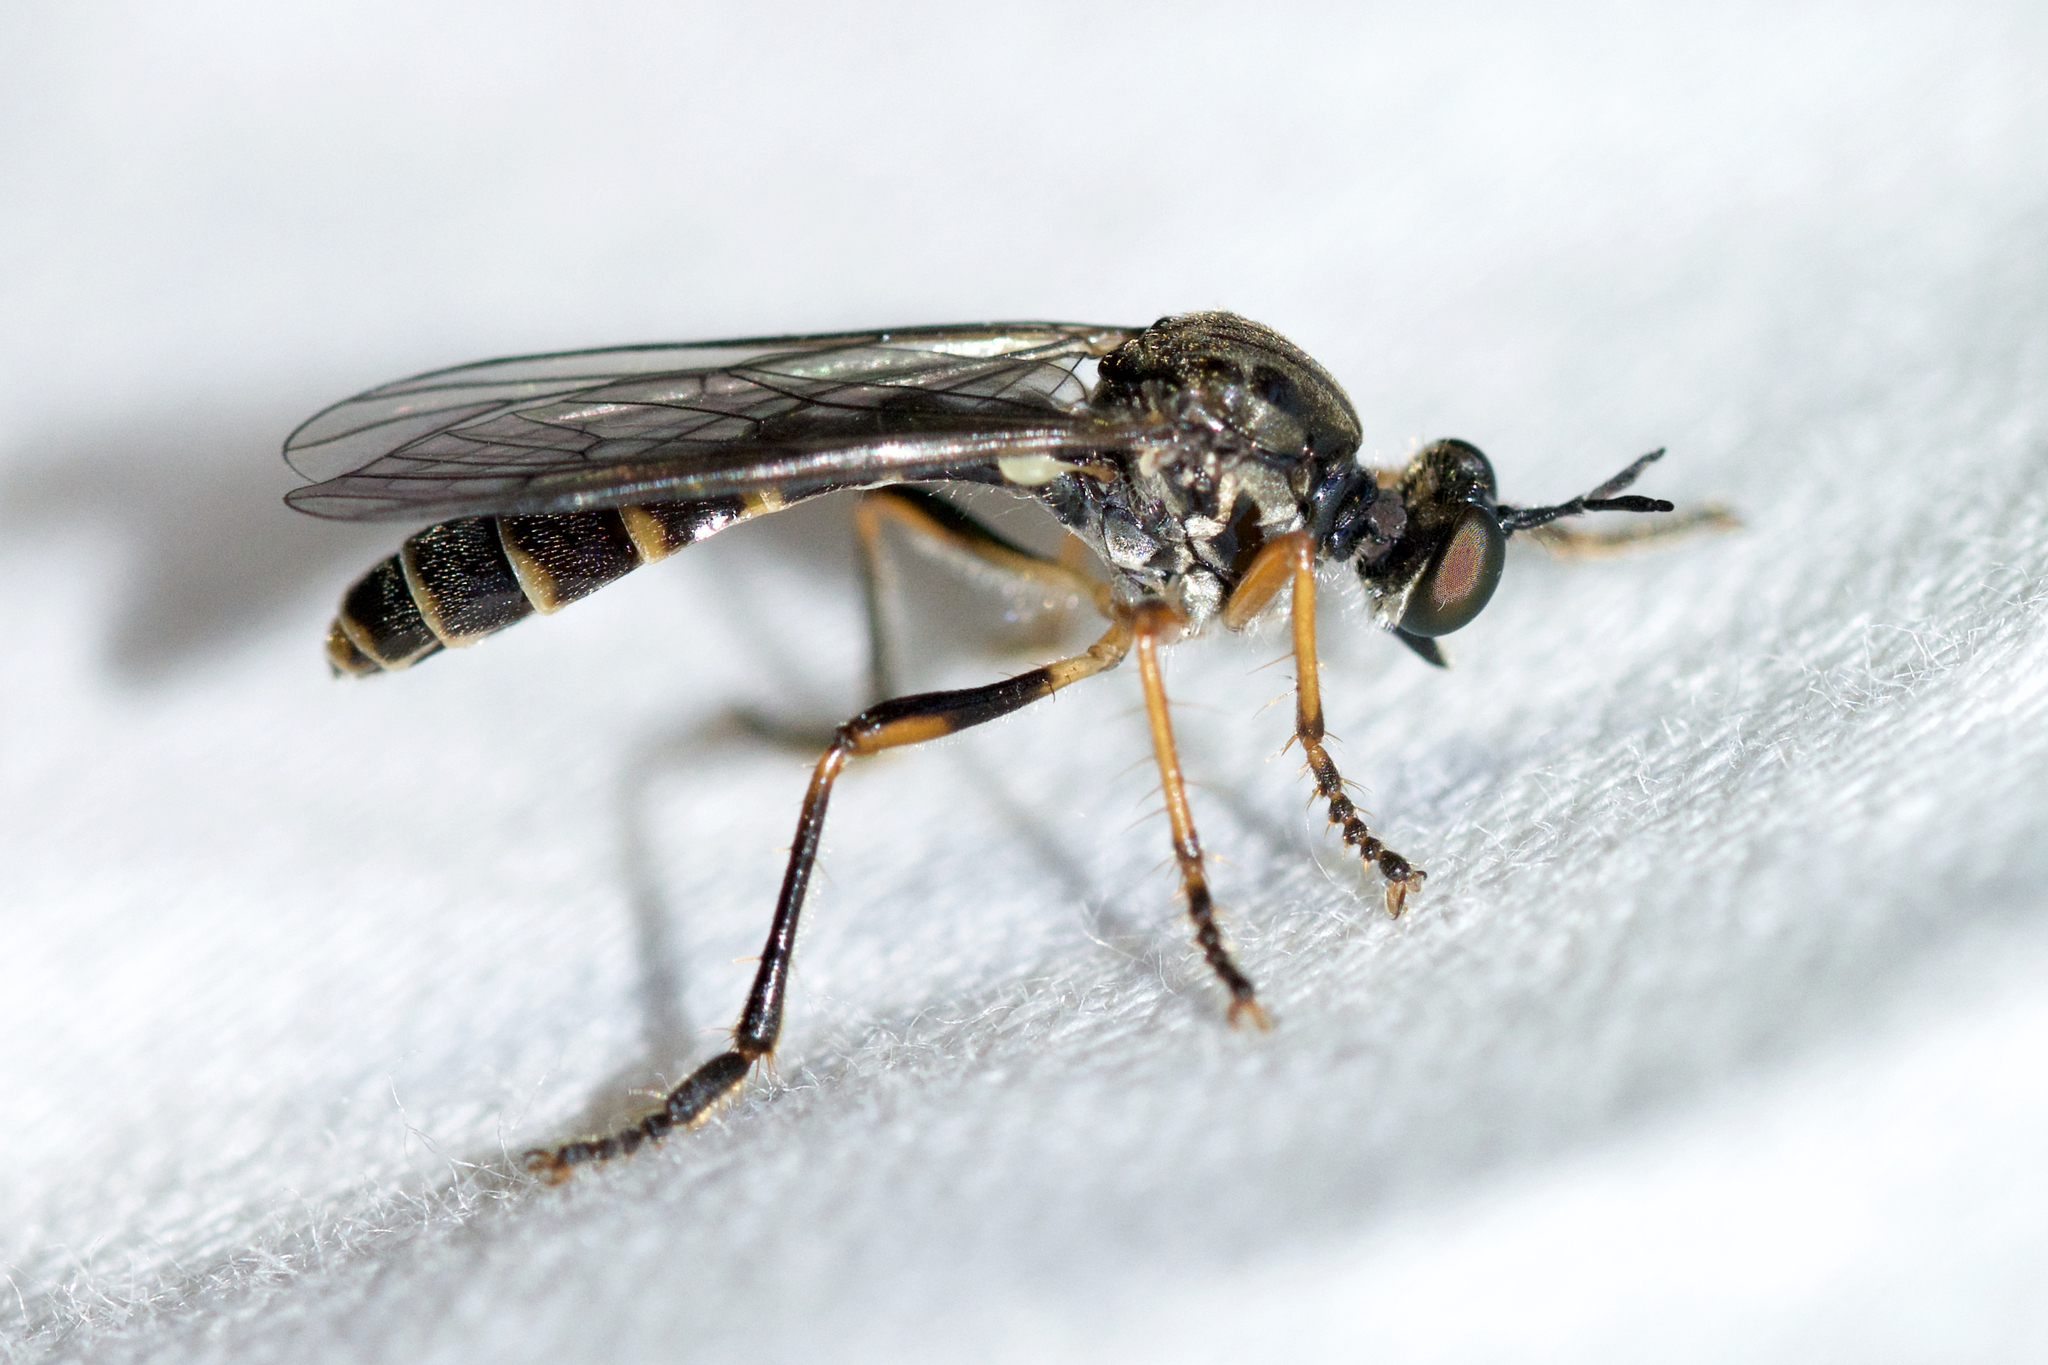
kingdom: Animalia
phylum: Arthropoda
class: Insecta
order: Diptera
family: Asilidae
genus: Dioctria
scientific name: Dioctria hyalipennis
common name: Stripe-legged robberfly
